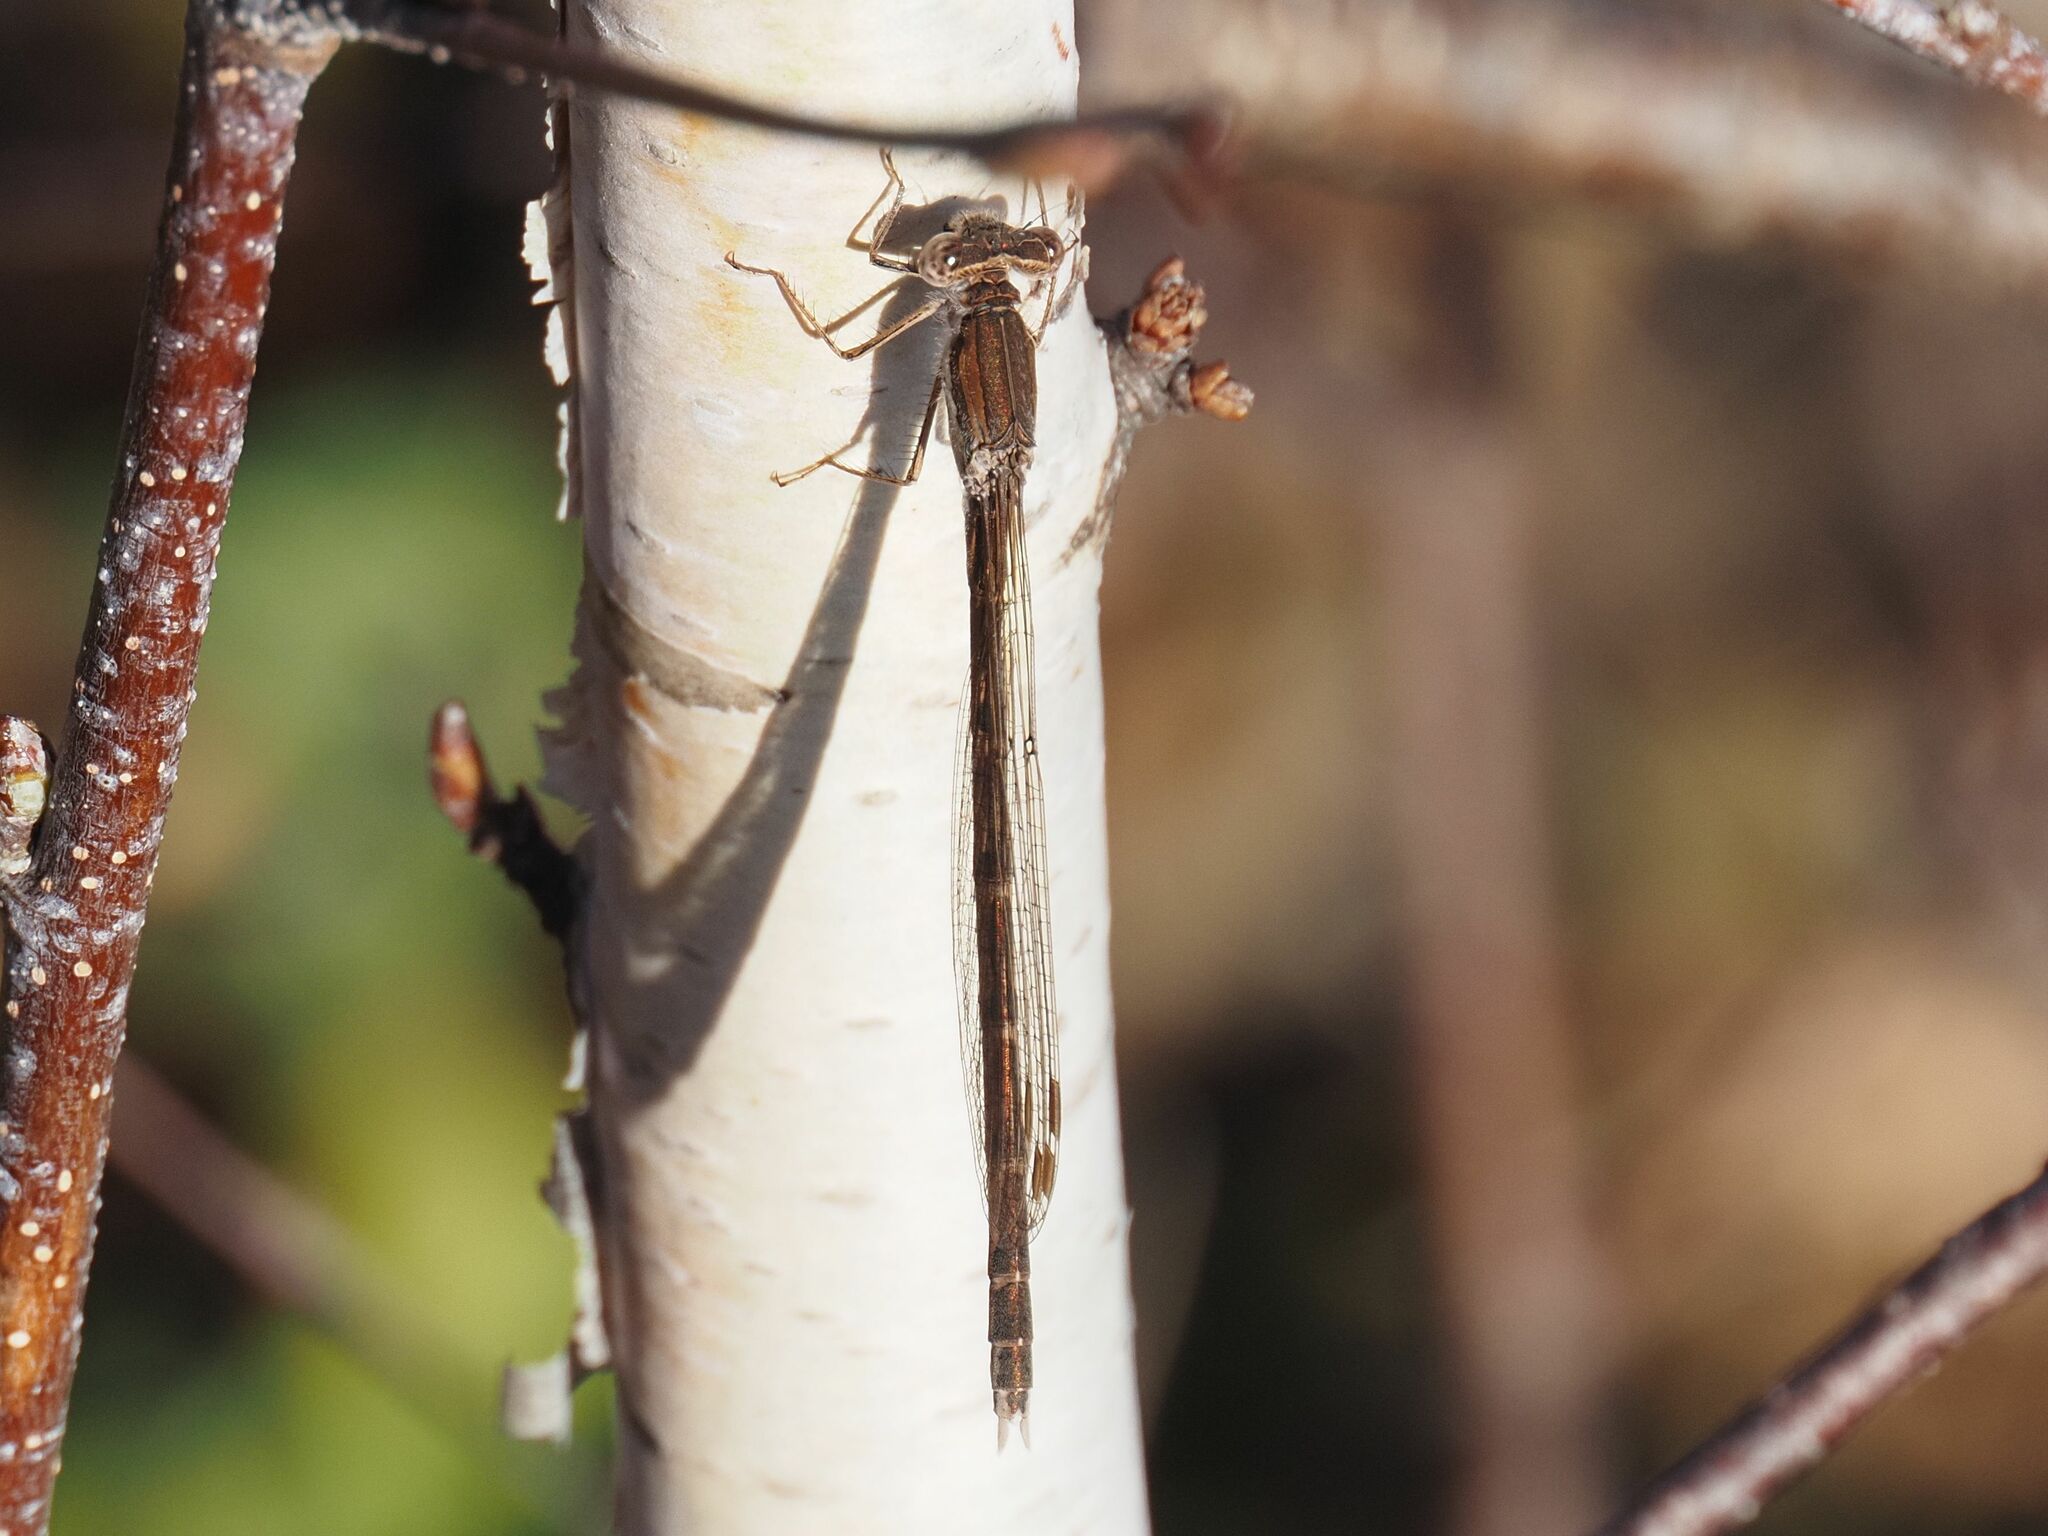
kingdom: Animalia
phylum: Arthropoda
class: Insecta
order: Odonata
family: Lestidae
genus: Sympecma
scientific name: Sympecma fusca
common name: Common winter damsel
